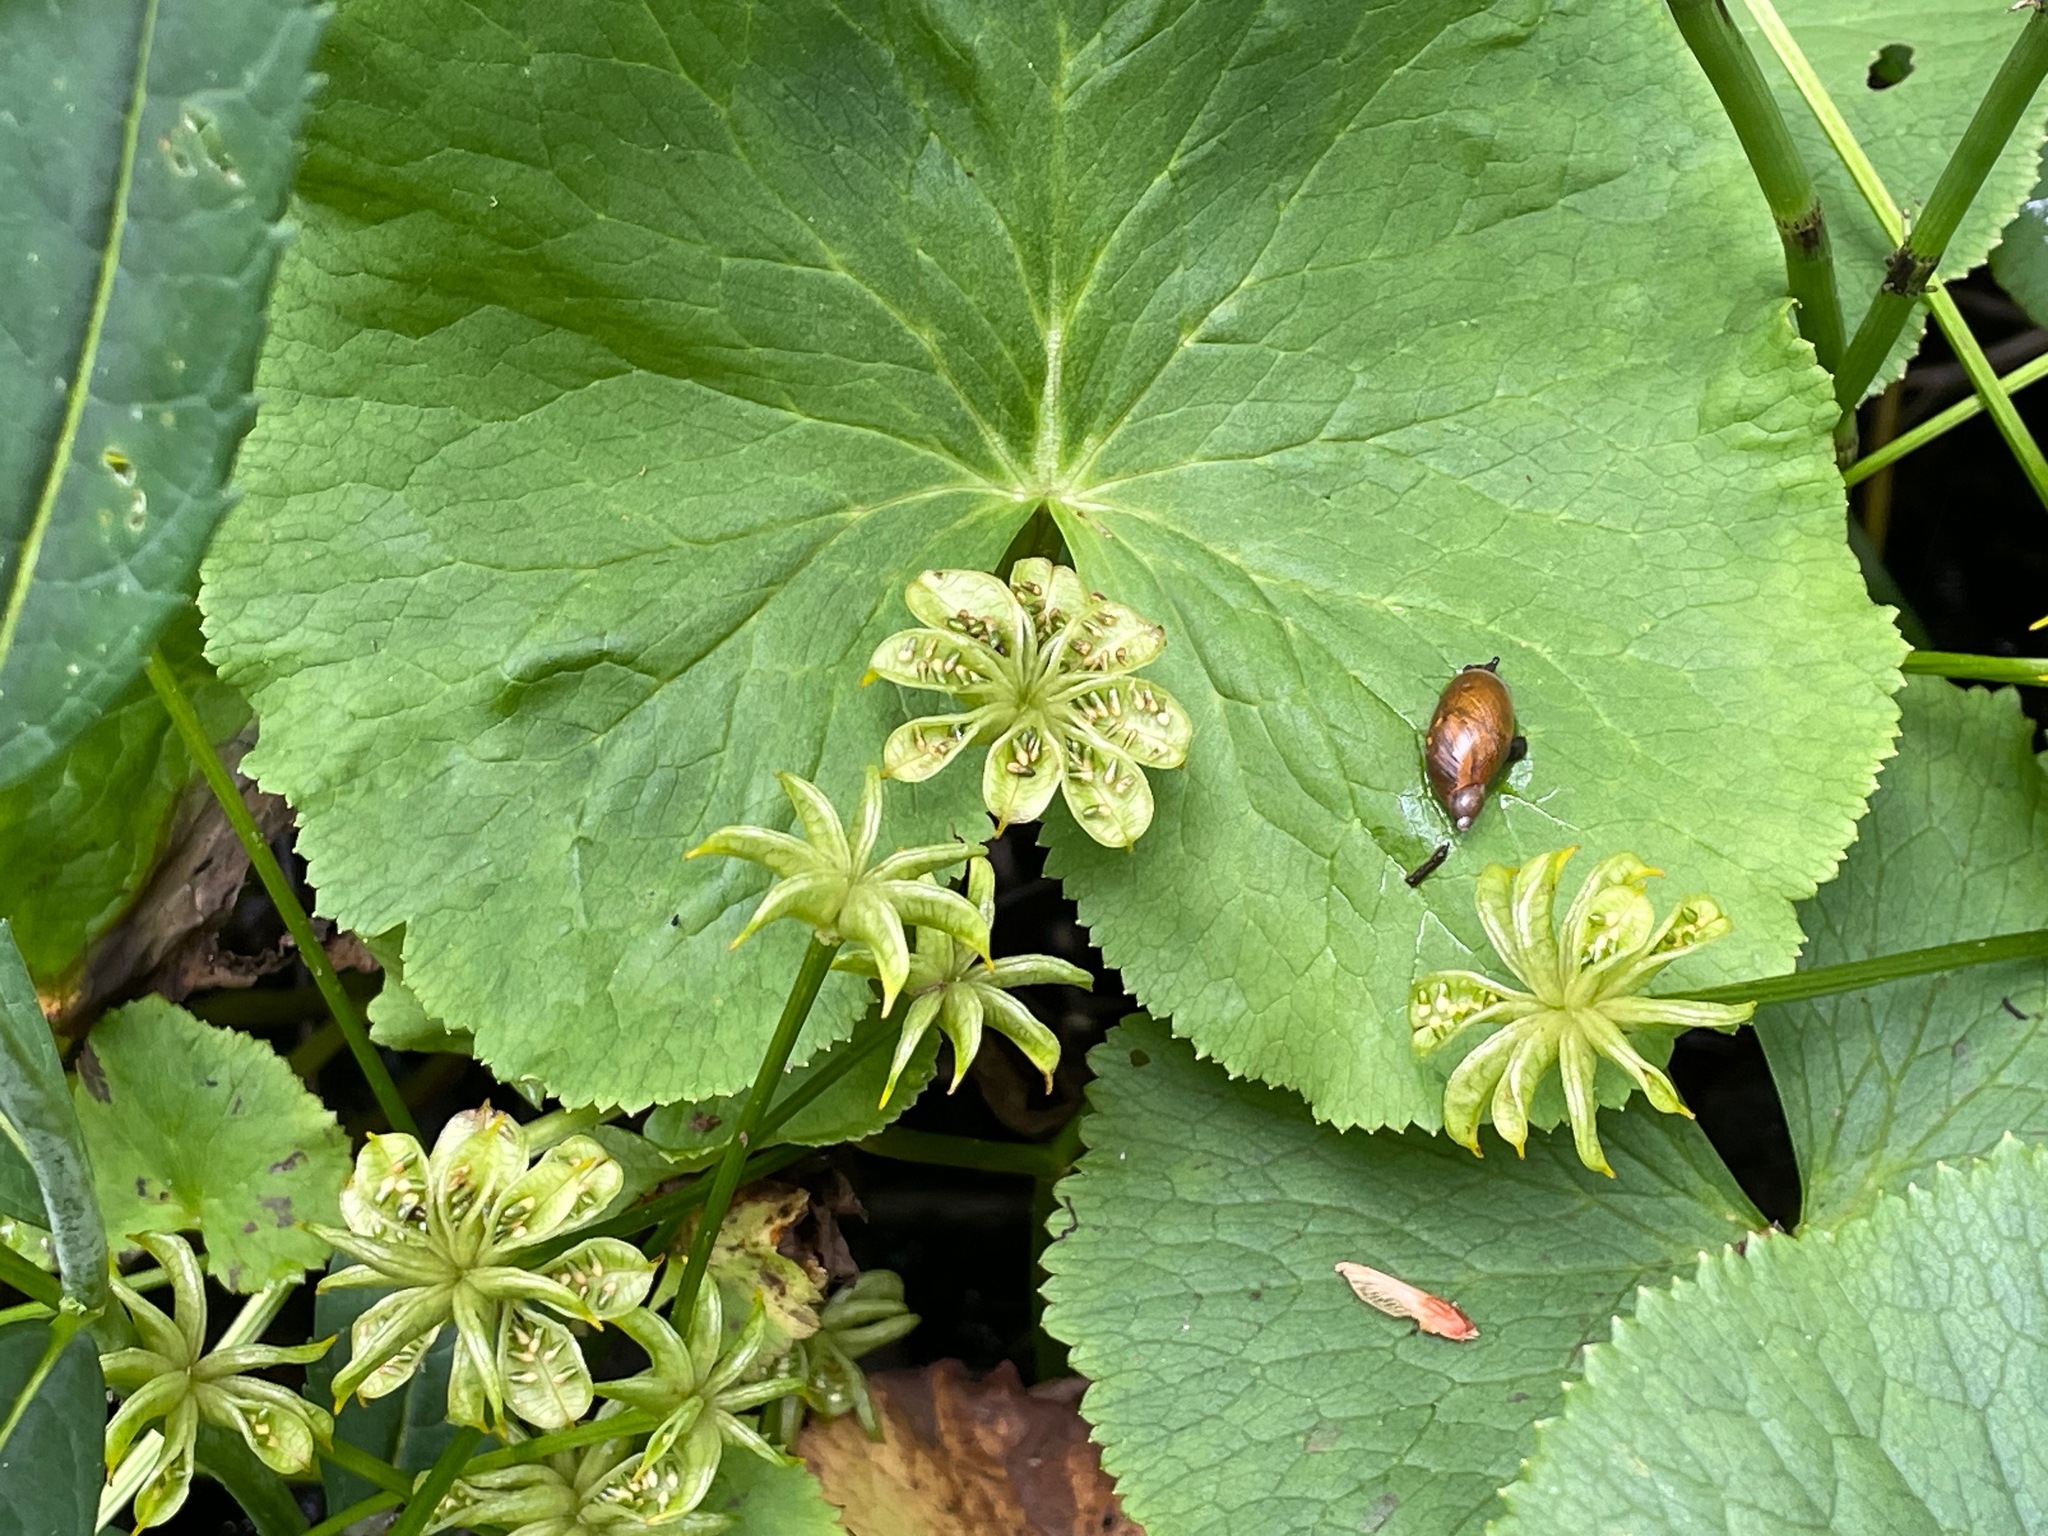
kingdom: Plantae
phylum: Tracheophyta
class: Magnoliopsida
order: Ranunculales
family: Ranunculaceae
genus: Caltha
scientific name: Caltha palustris
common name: Marsh marigold
